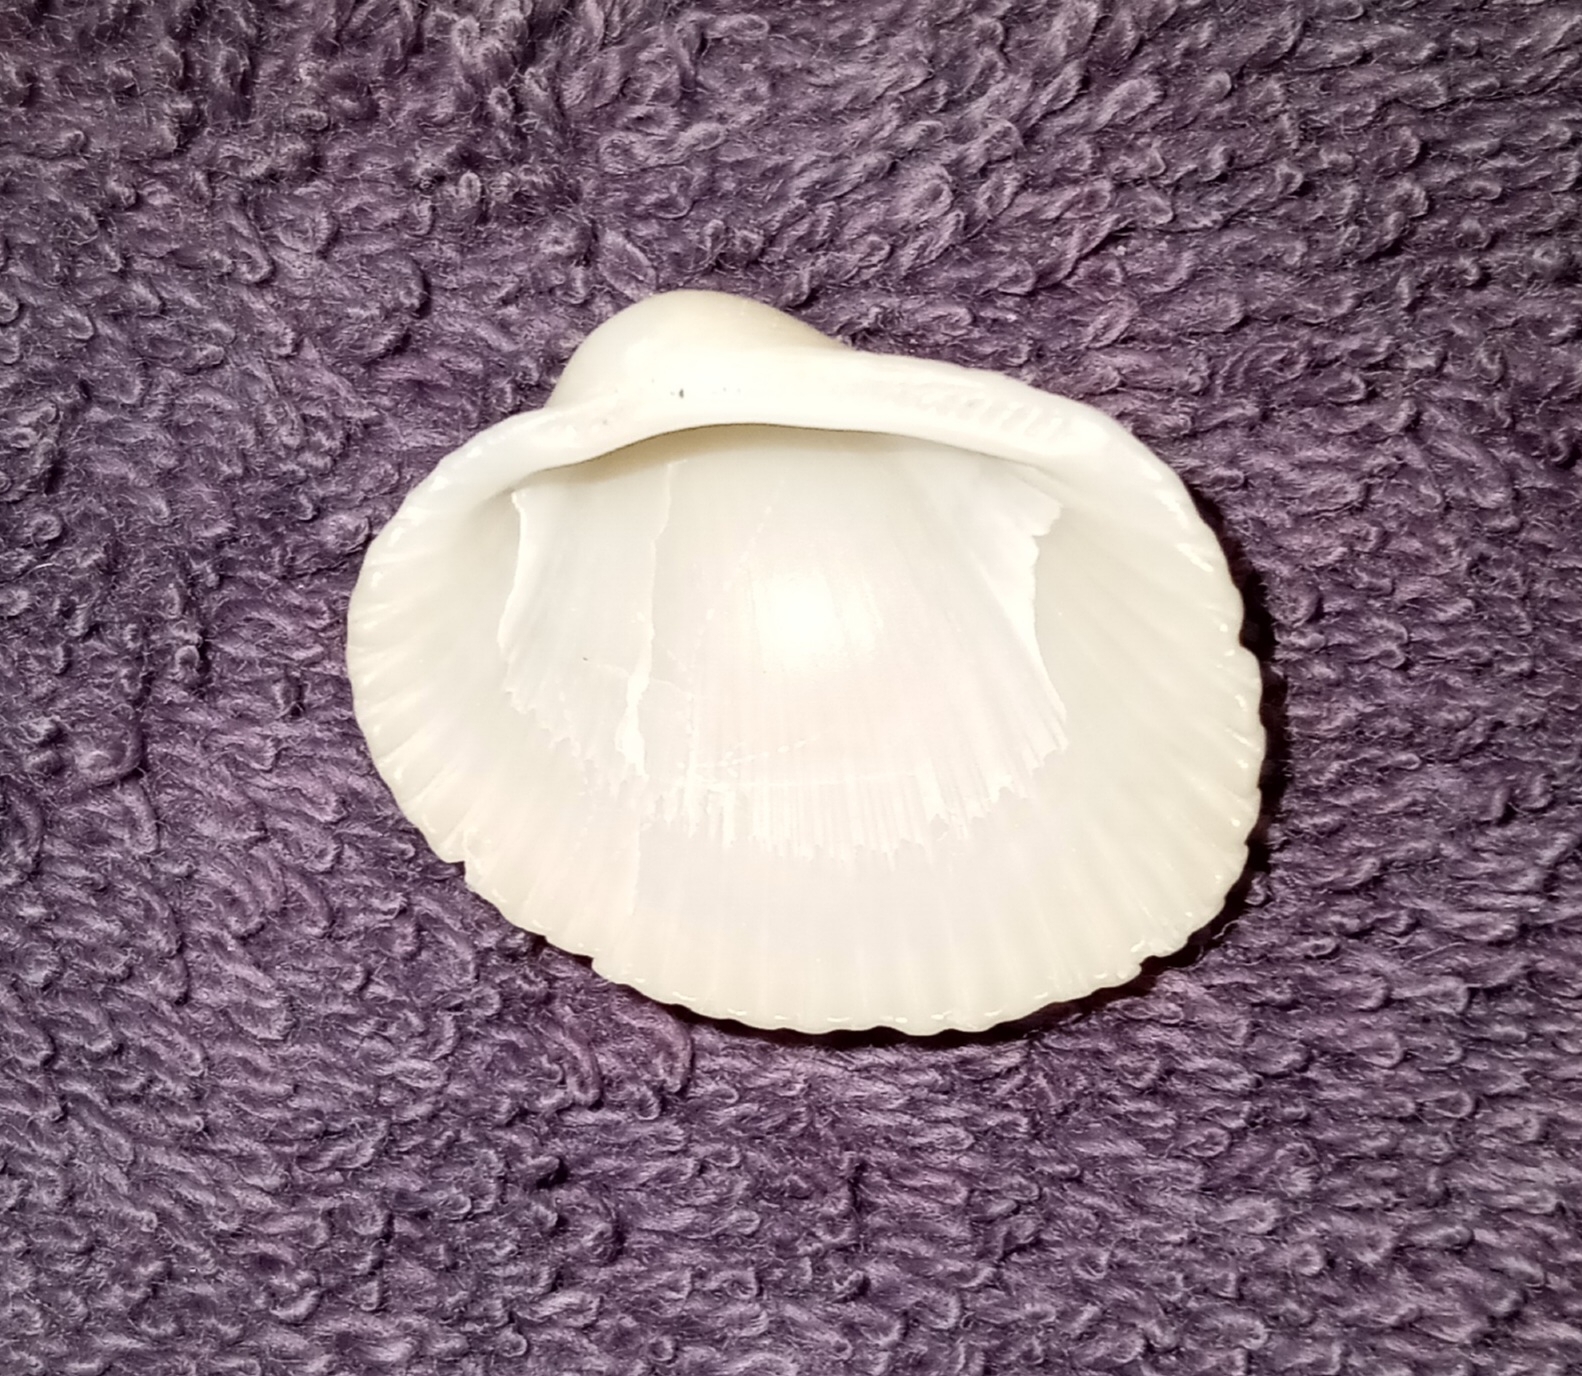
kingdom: Animalia
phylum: Mollusca
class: Bivalvia
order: Arcida
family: Arcidae
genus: Lunarca
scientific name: Lunarca ovalis
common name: Blood ark
